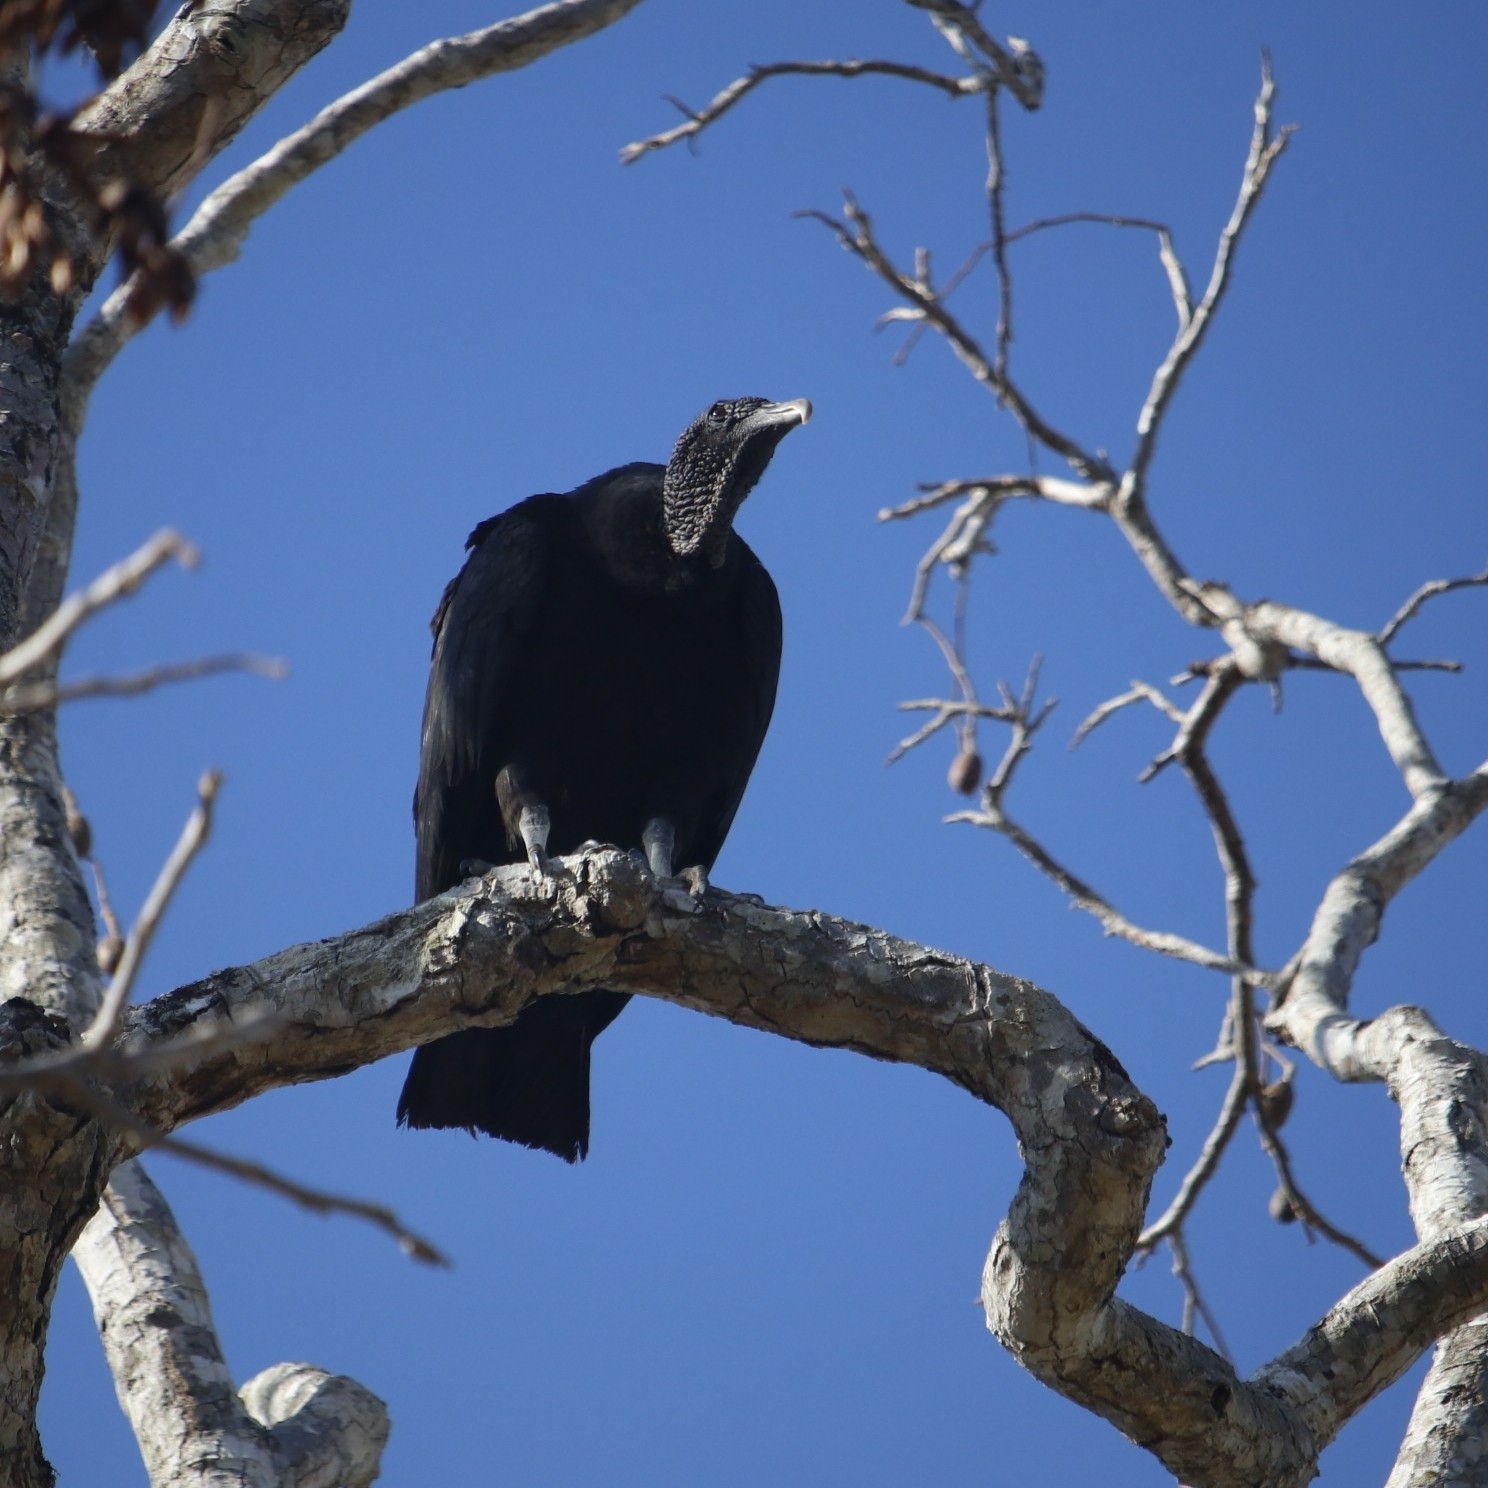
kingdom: Animalia
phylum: Chordata
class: Aves
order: Accipitriformes
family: Cathartidae
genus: Coragyps
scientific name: Coragyps atratus
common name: Black vulture
